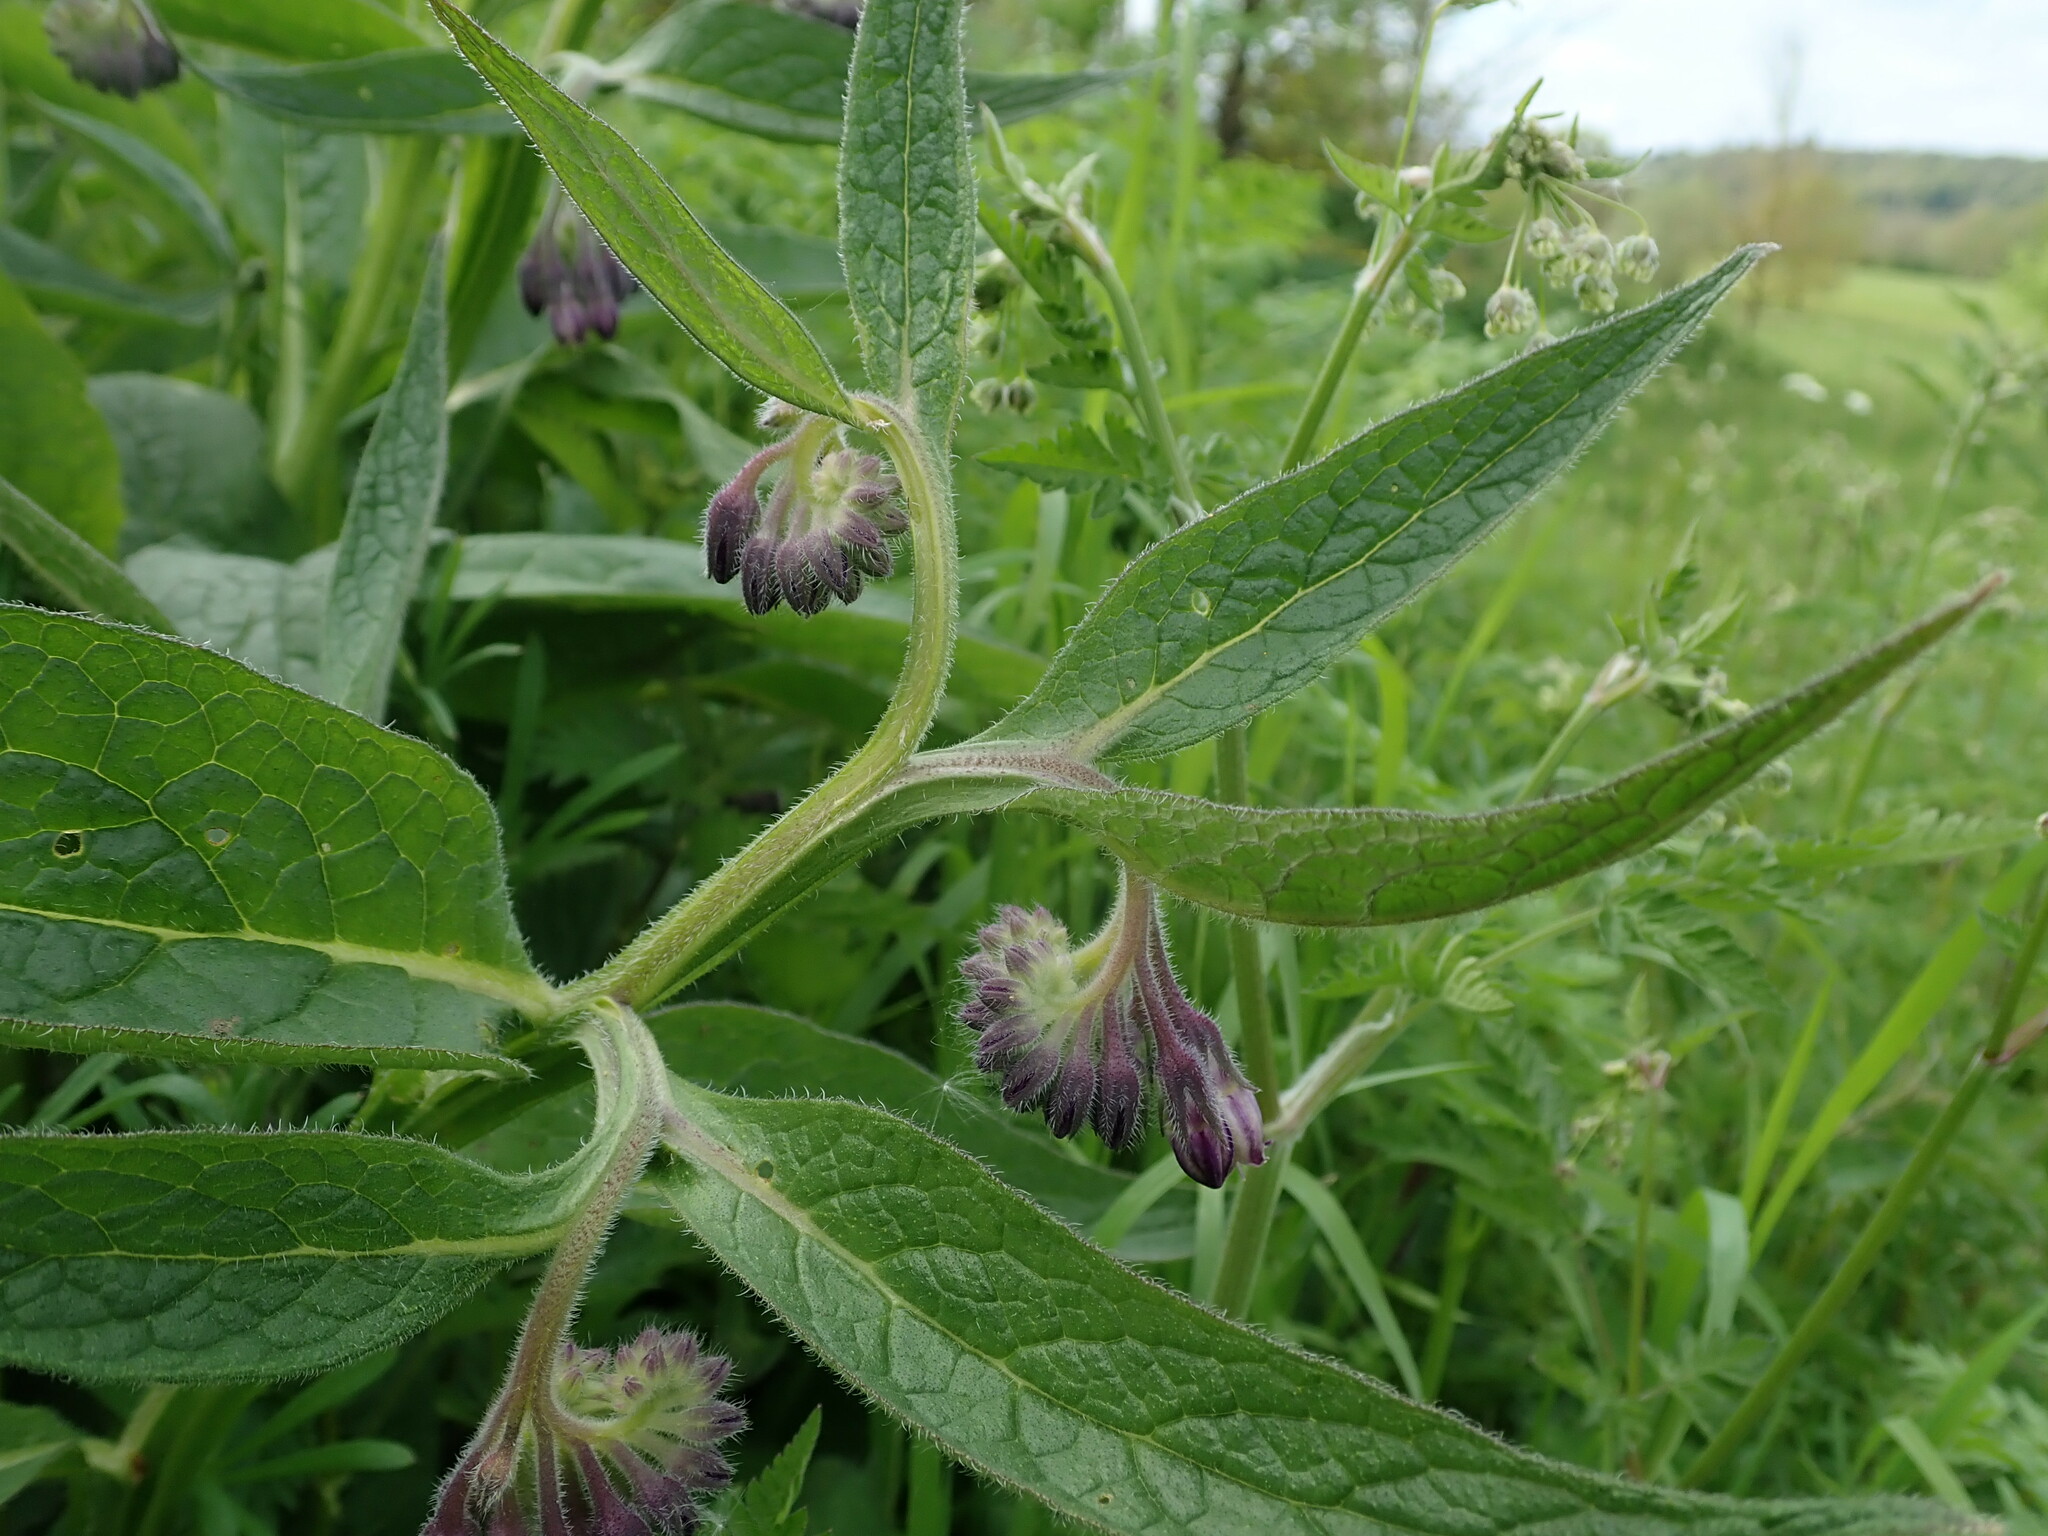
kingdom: Plantae
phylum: Tracheophyta
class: Magnoliopsida
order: Boraginales
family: Boraginaceae
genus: Symphytum
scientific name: Symphytum officinale
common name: Common comfrey
